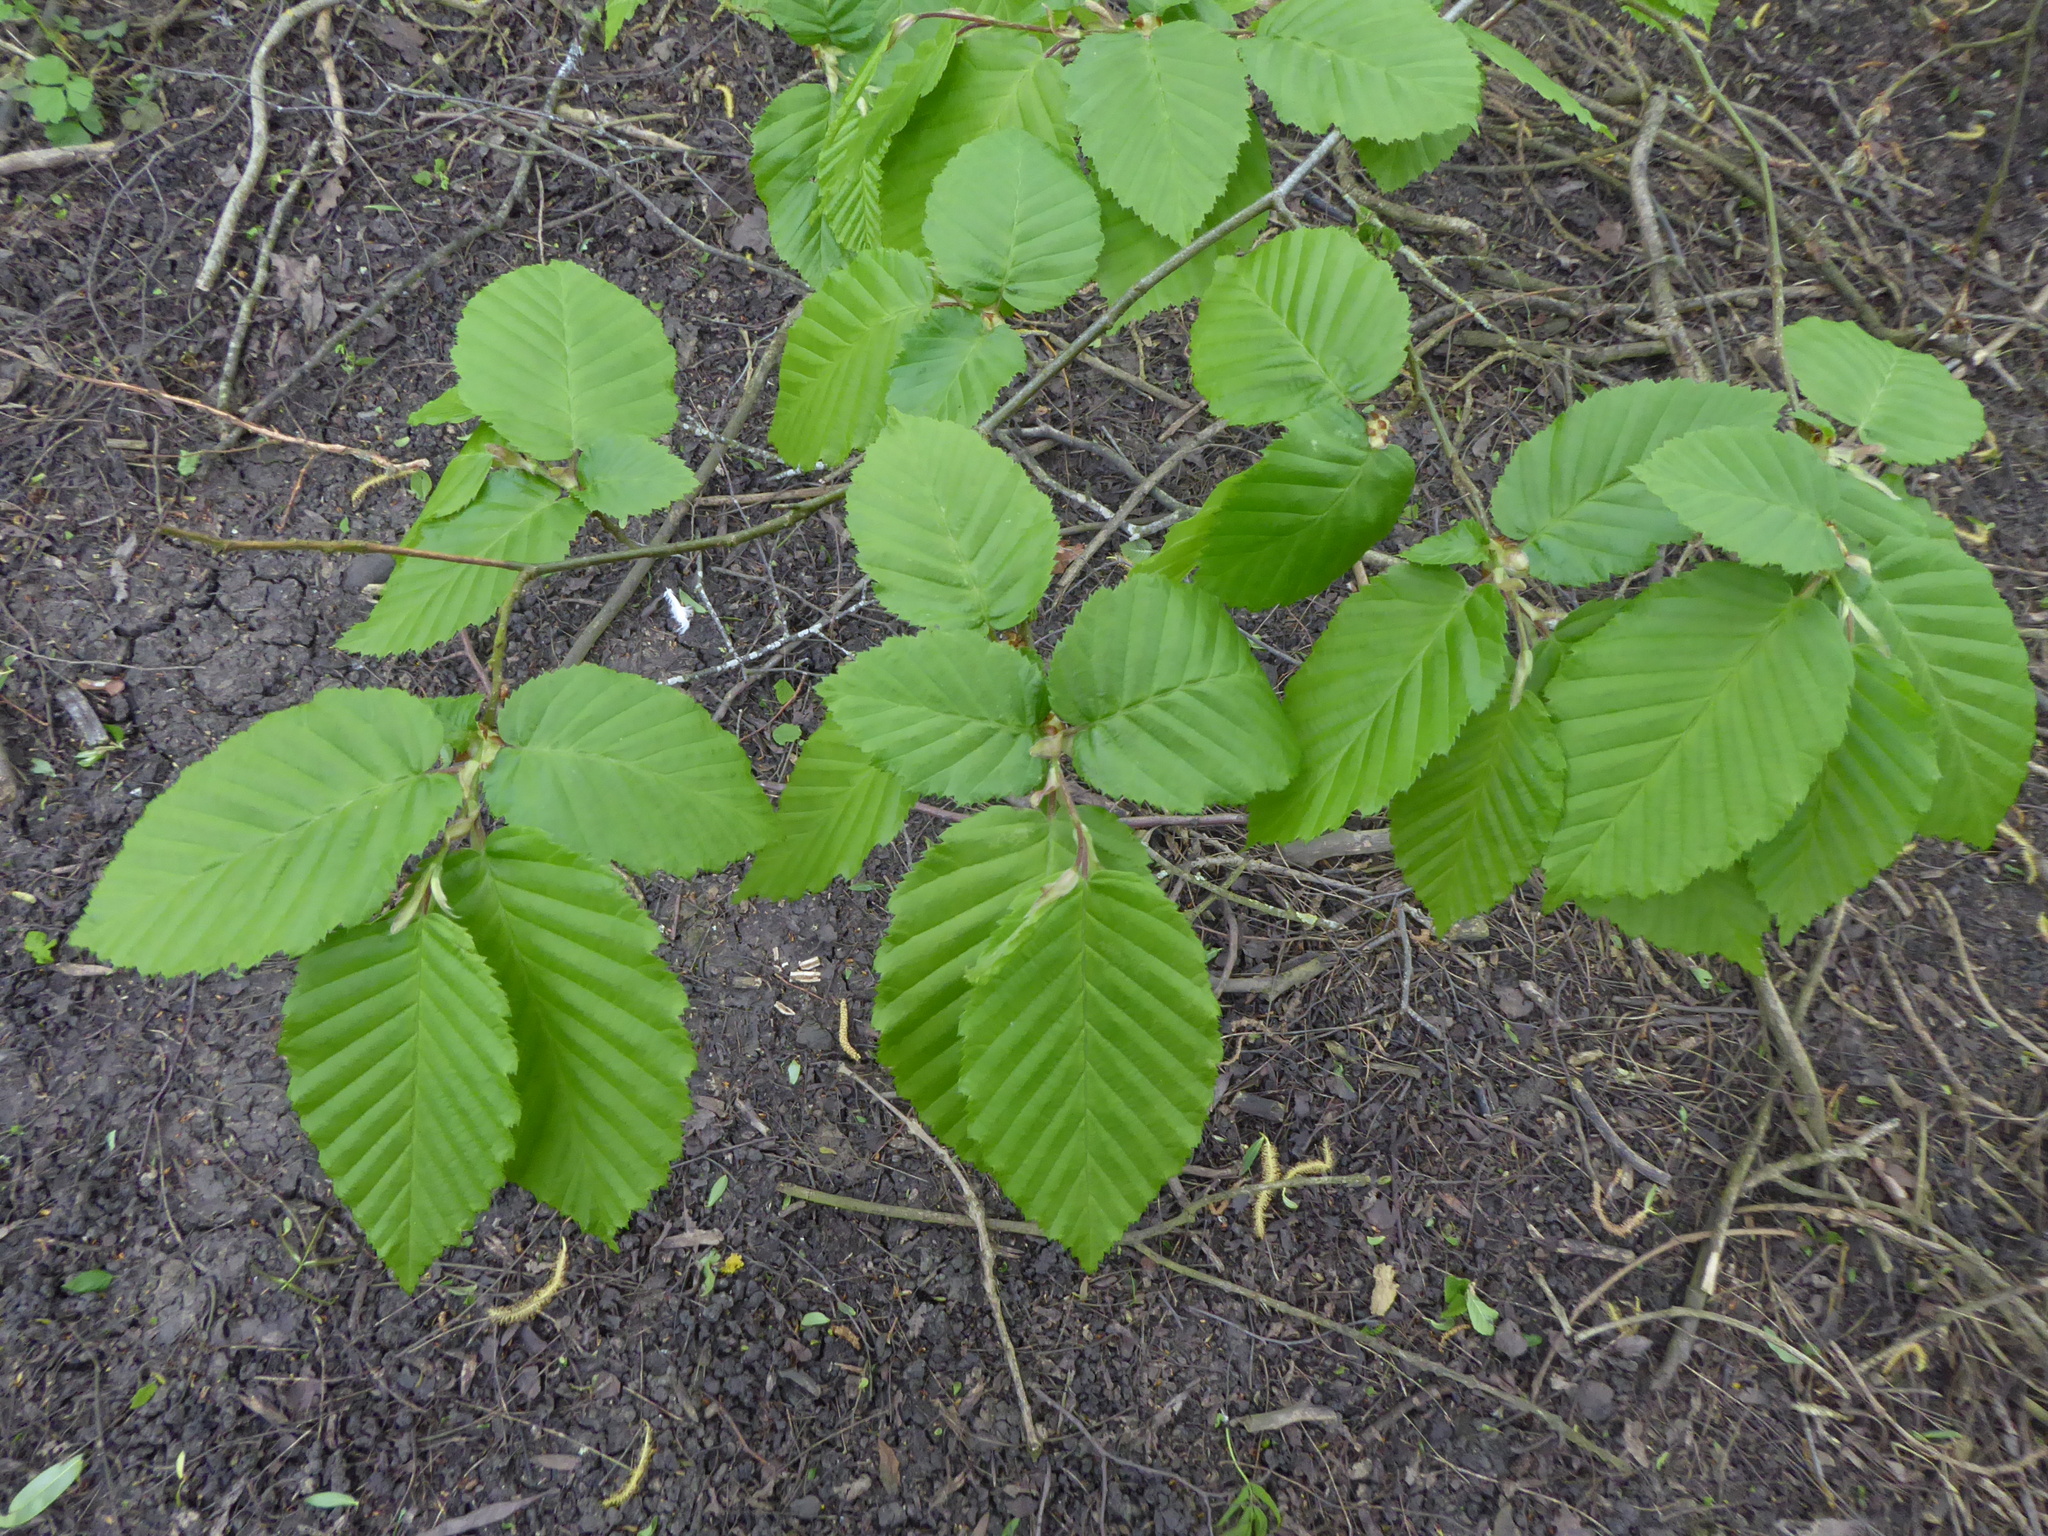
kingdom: Plantae
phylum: Tracheophyta
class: Magnoliopsida
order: Fagales
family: Betulaceae
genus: Carpinus
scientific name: Carpinus betulus
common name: Hornbeam
